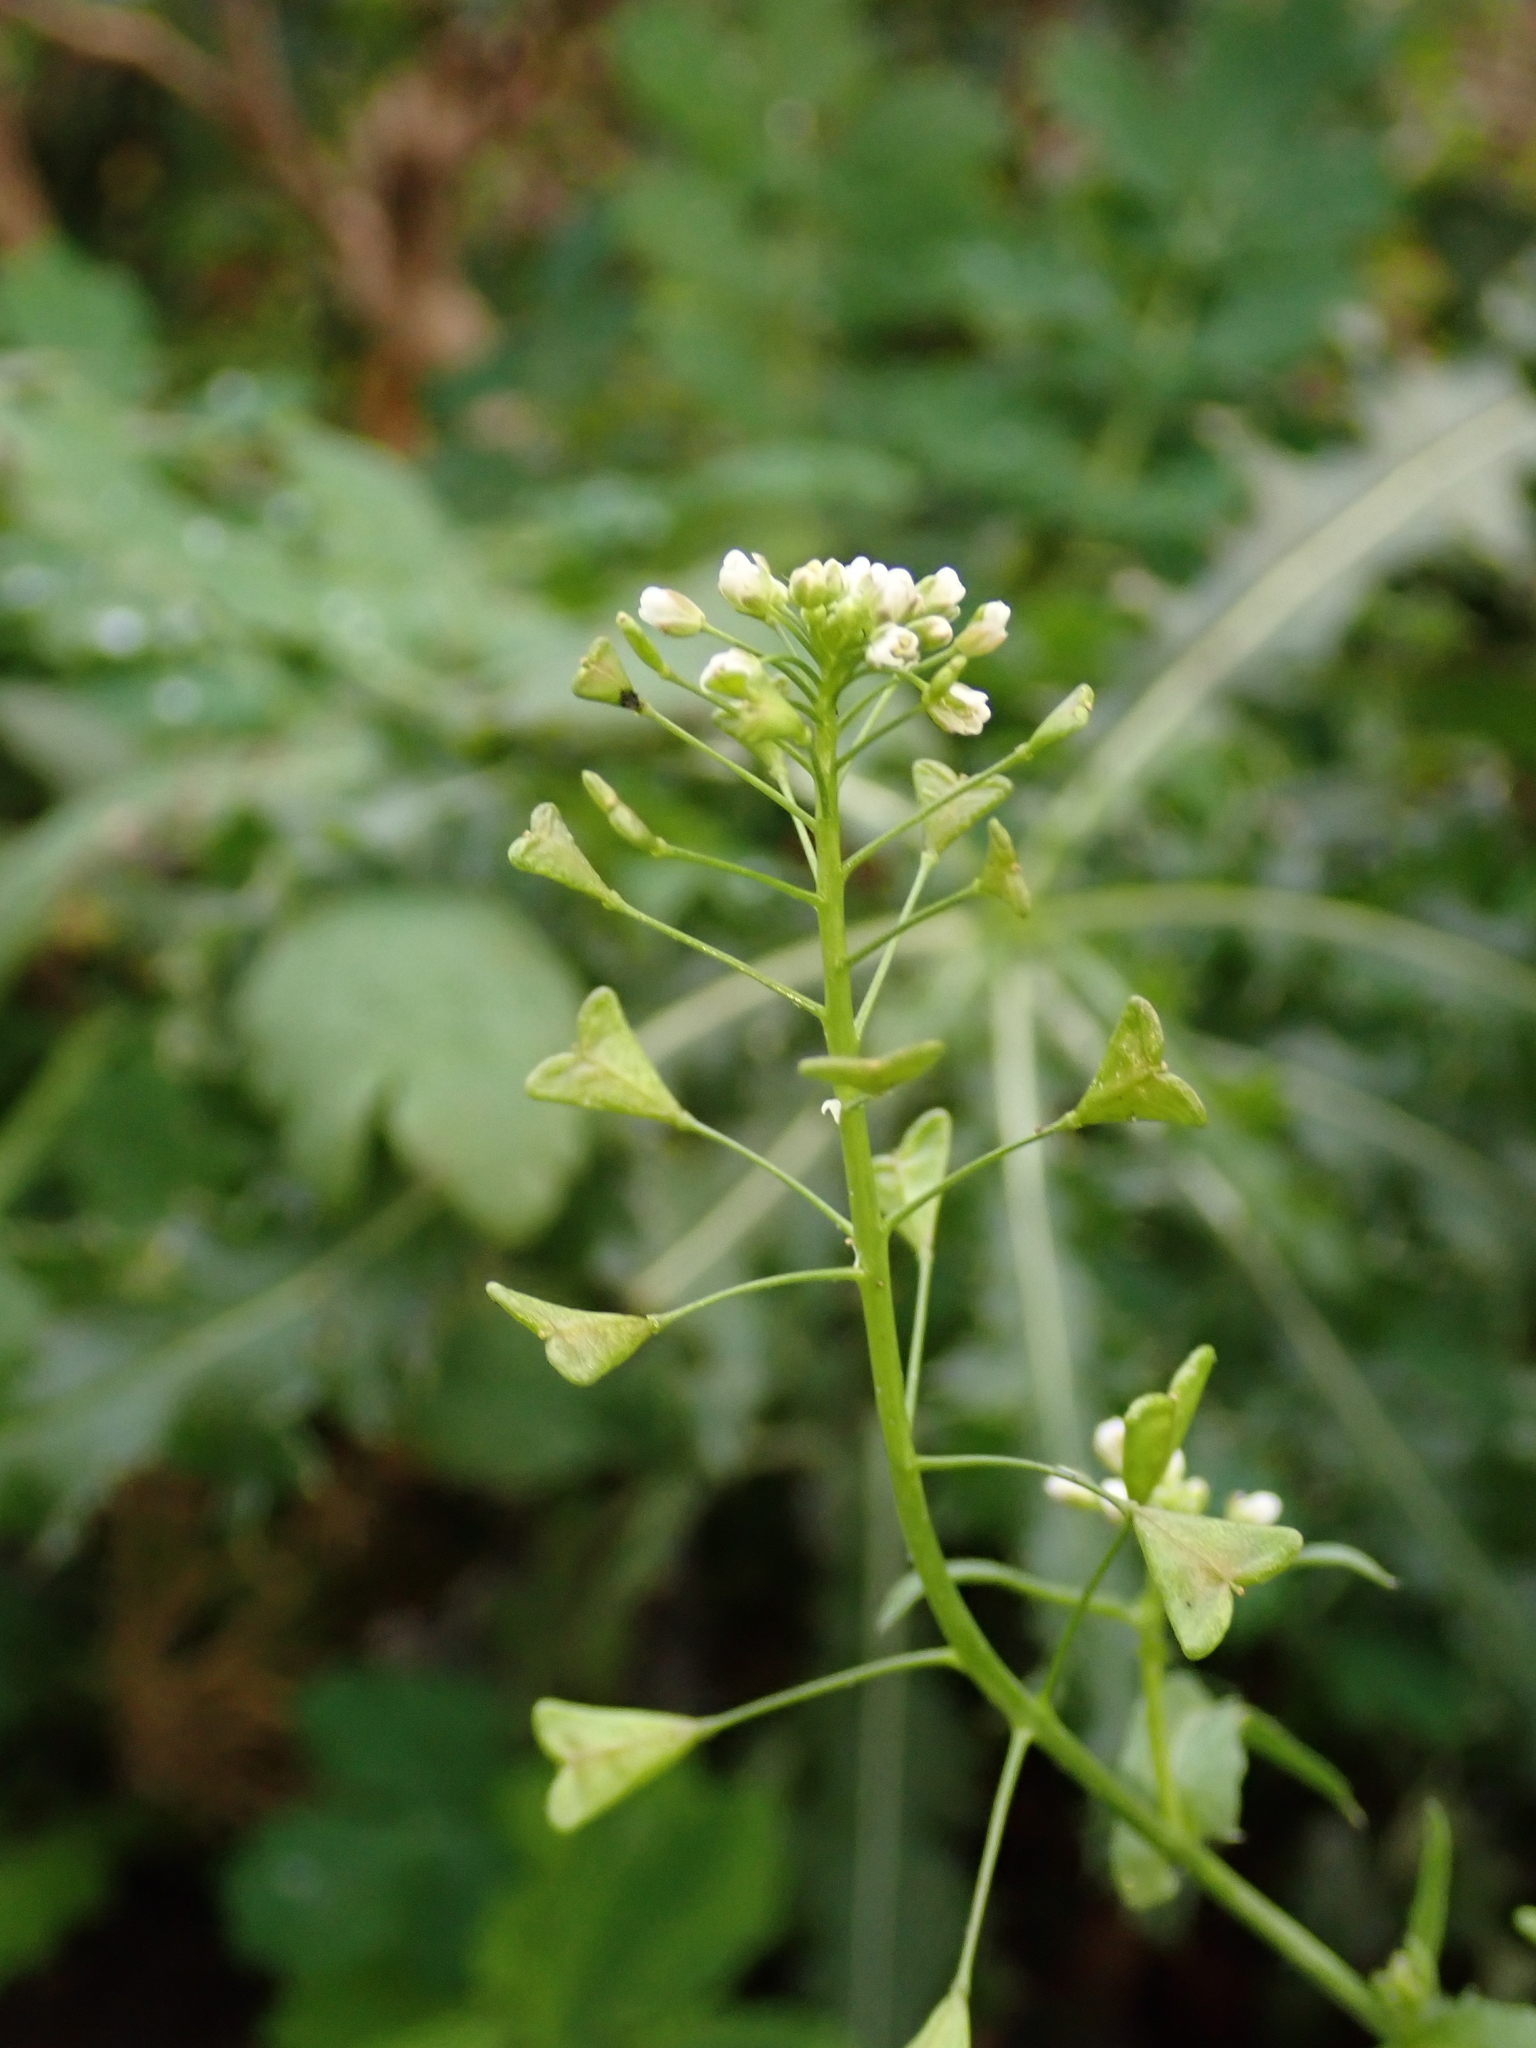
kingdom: Plantae
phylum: Tracheophyta
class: Magnoliopsida
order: Brassicales
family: Brassicaceae
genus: Capsella
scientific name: Capsella bursa-pastoris
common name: Shepherd's purse
